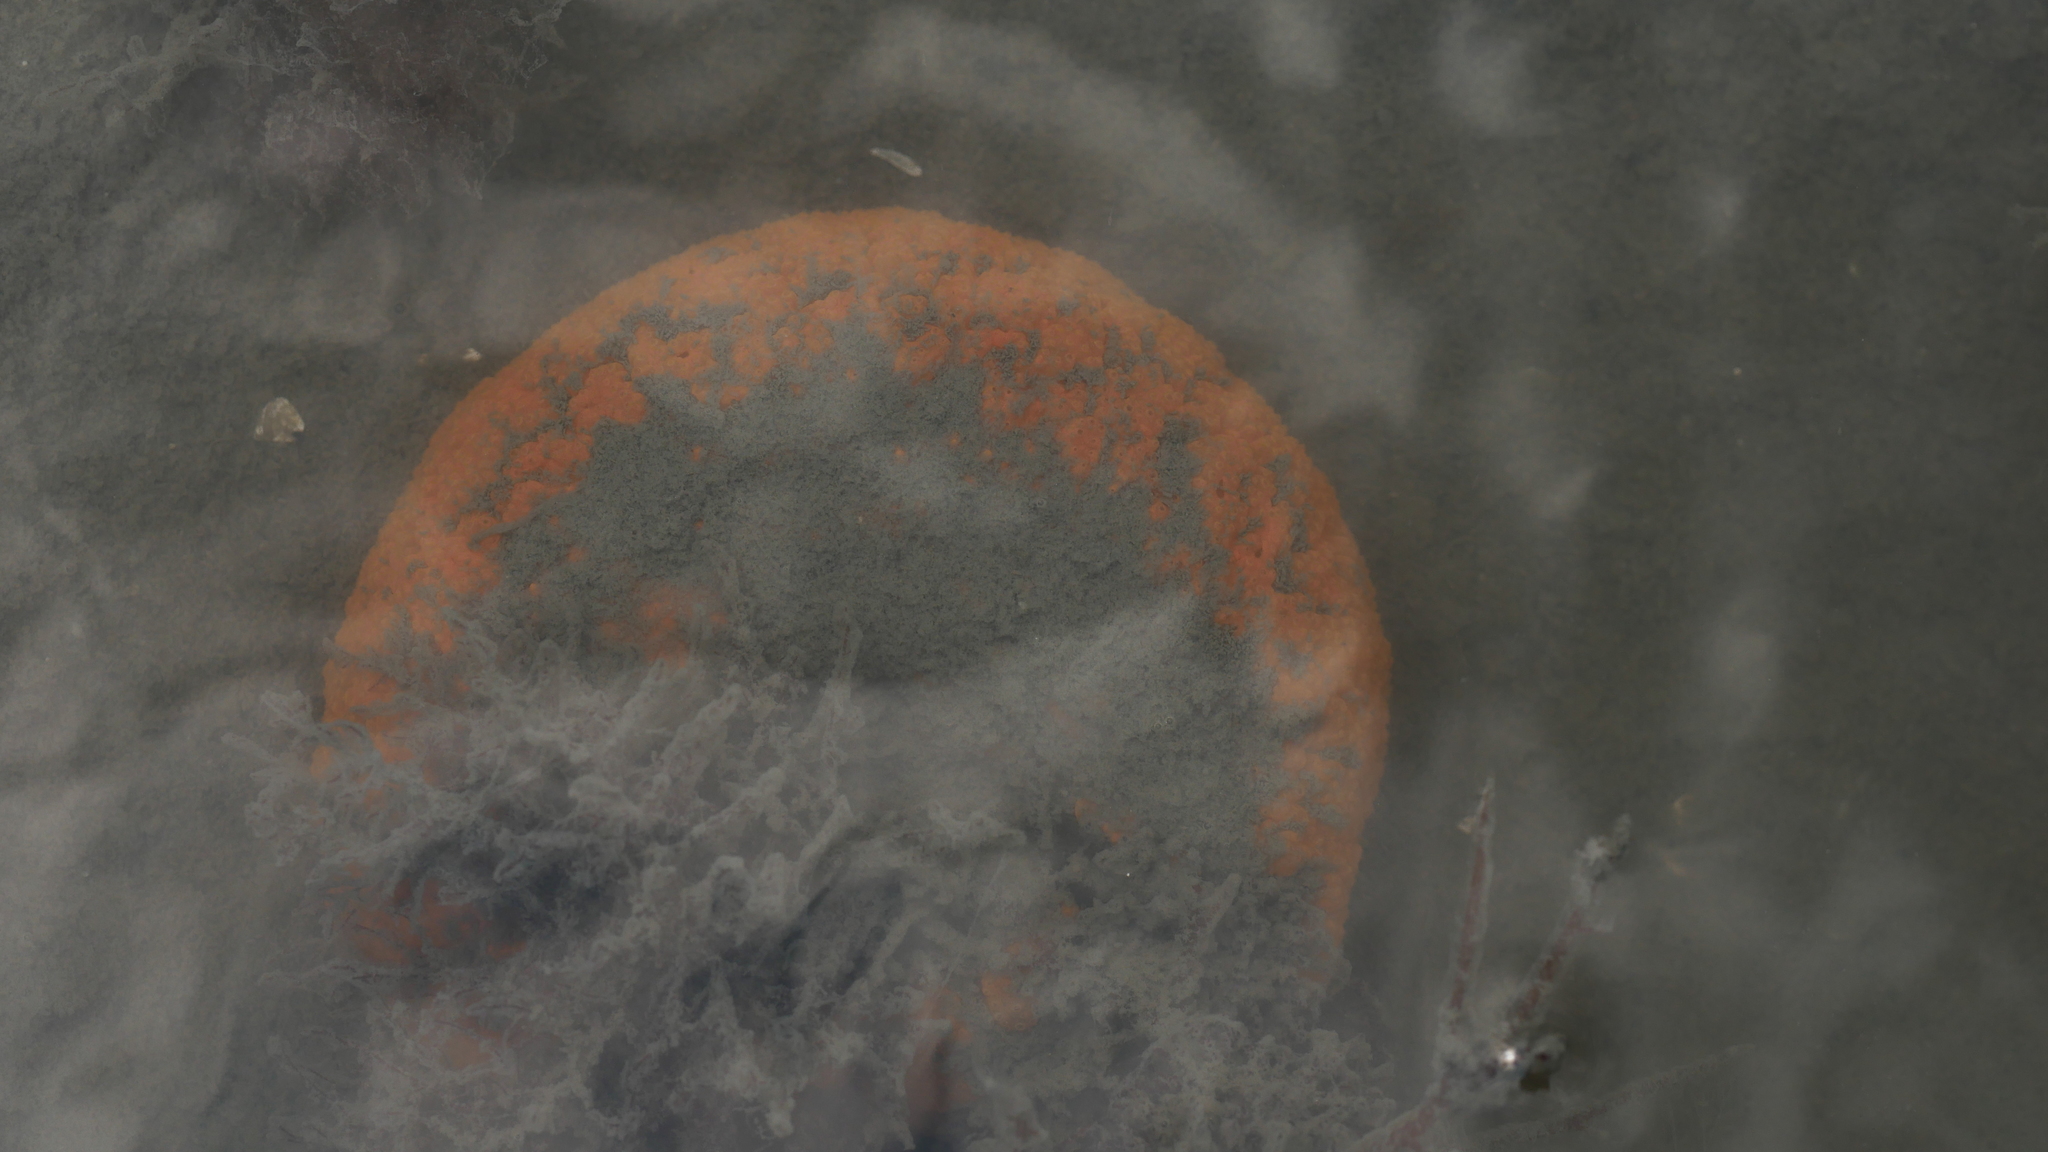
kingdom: Animalia
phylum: Chordata
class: Ascidiacea
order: Aplousobranchia
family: Polyclinidae
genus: Aplidium
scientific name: Aplidium stellatum
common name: Atlantic sea pork
